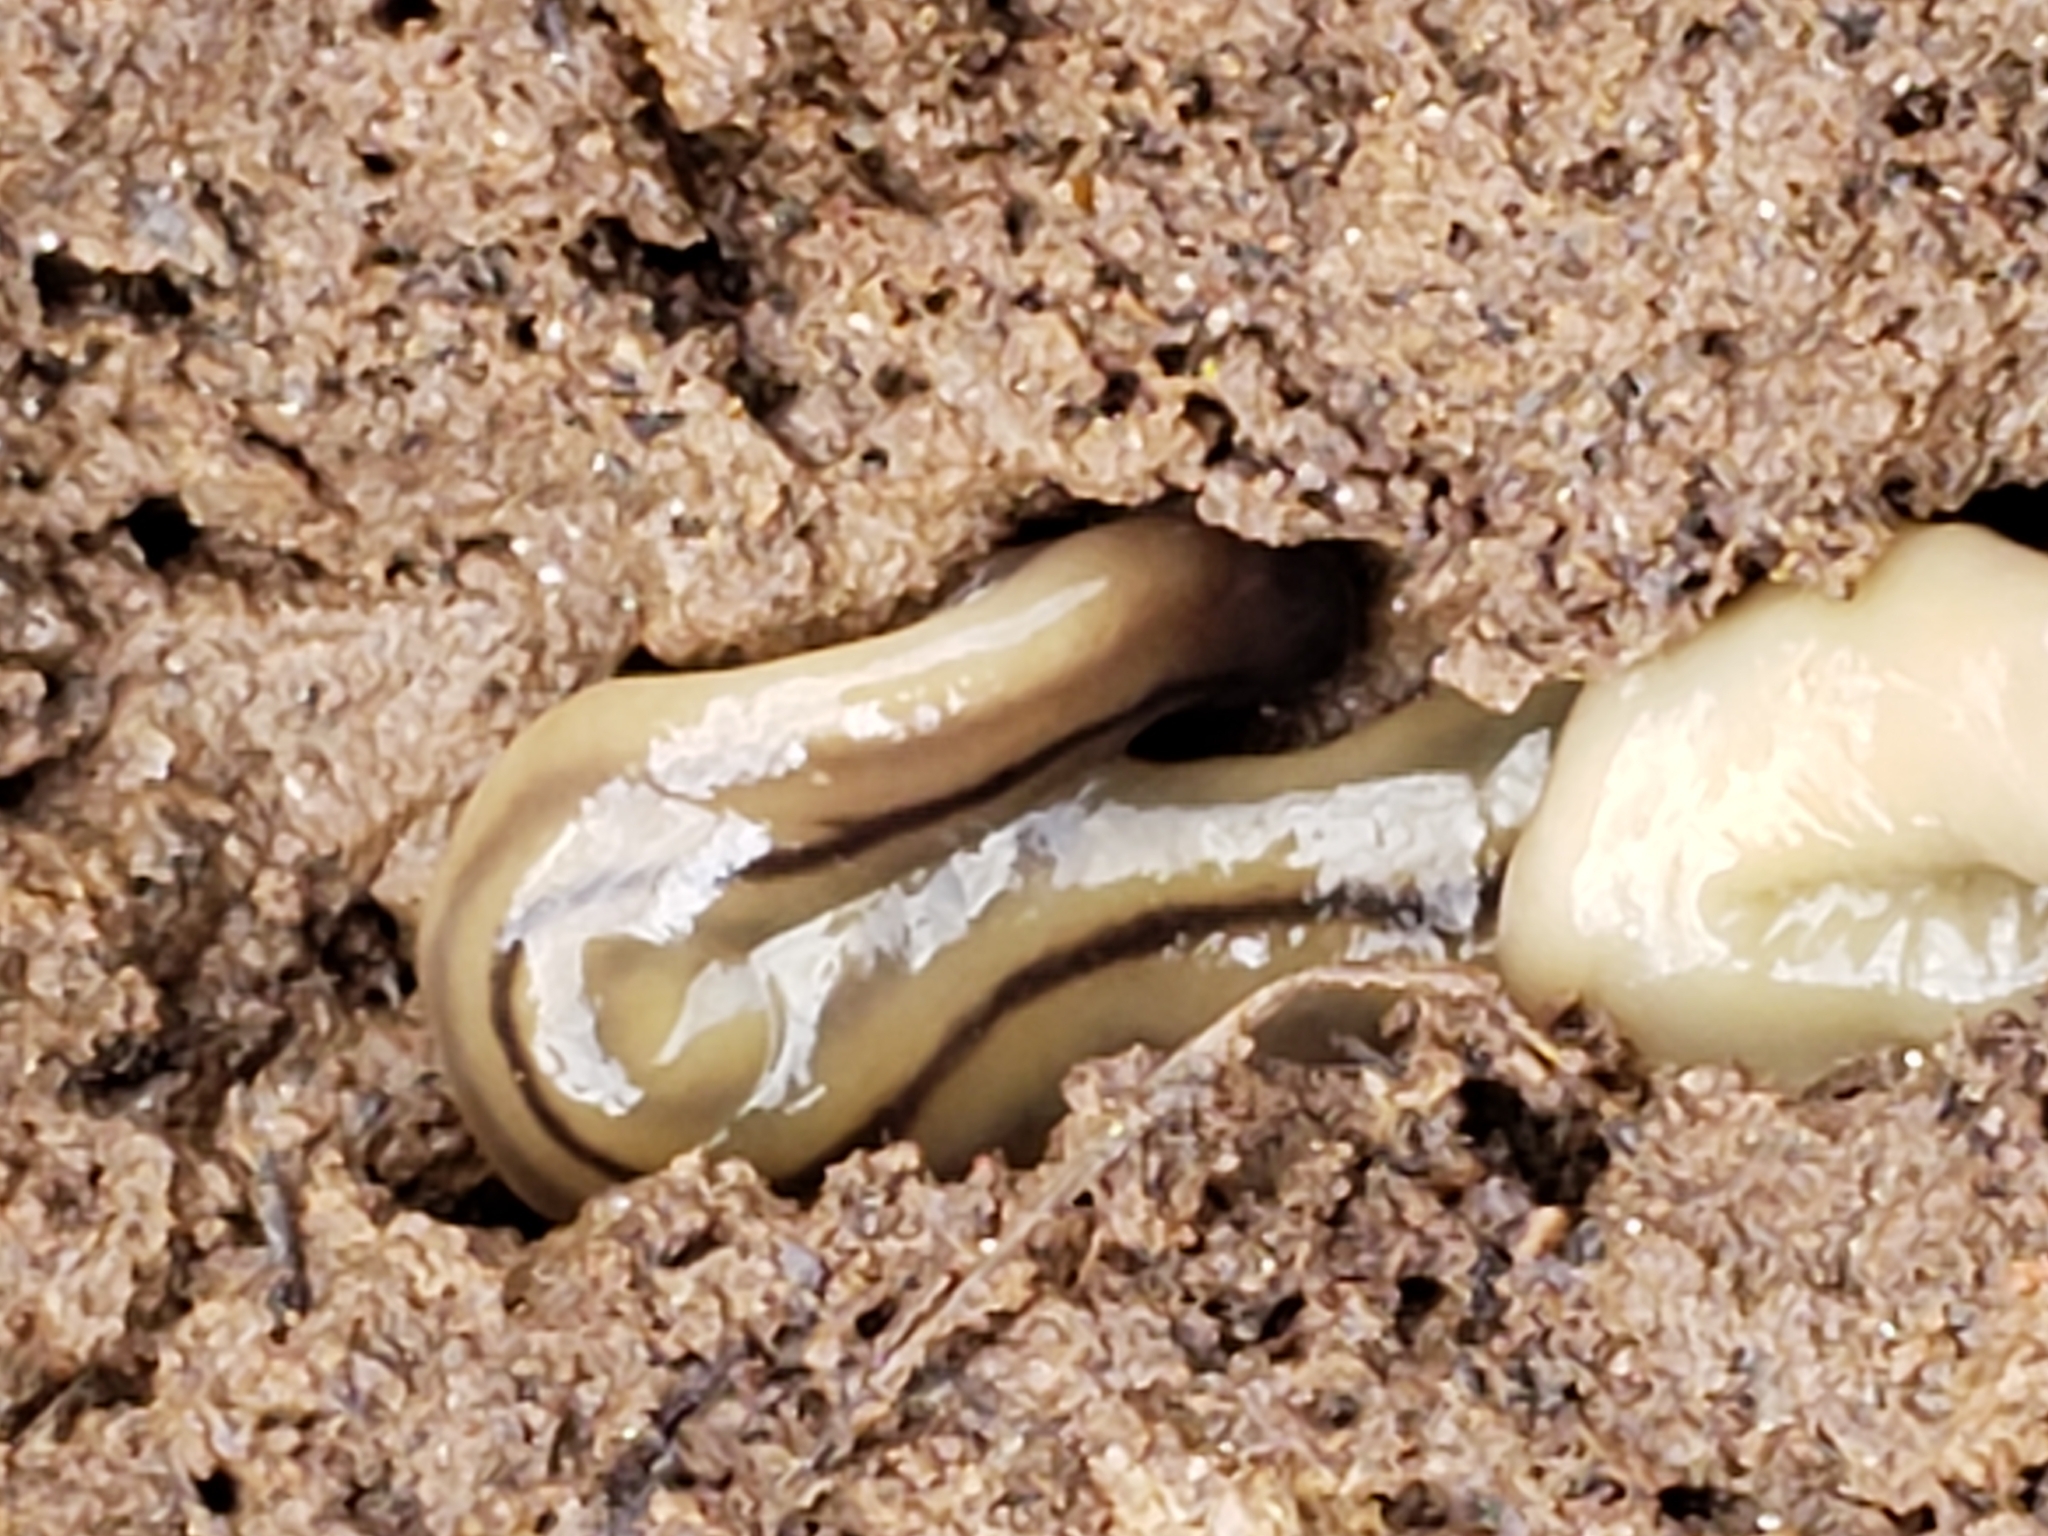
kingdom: Animalia
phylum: Platyhelminthes
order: Tricladida
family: Geoplanidae
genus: Bipalium
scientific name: Bipalium pennsylvanicum
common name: Three-lined land planarian
